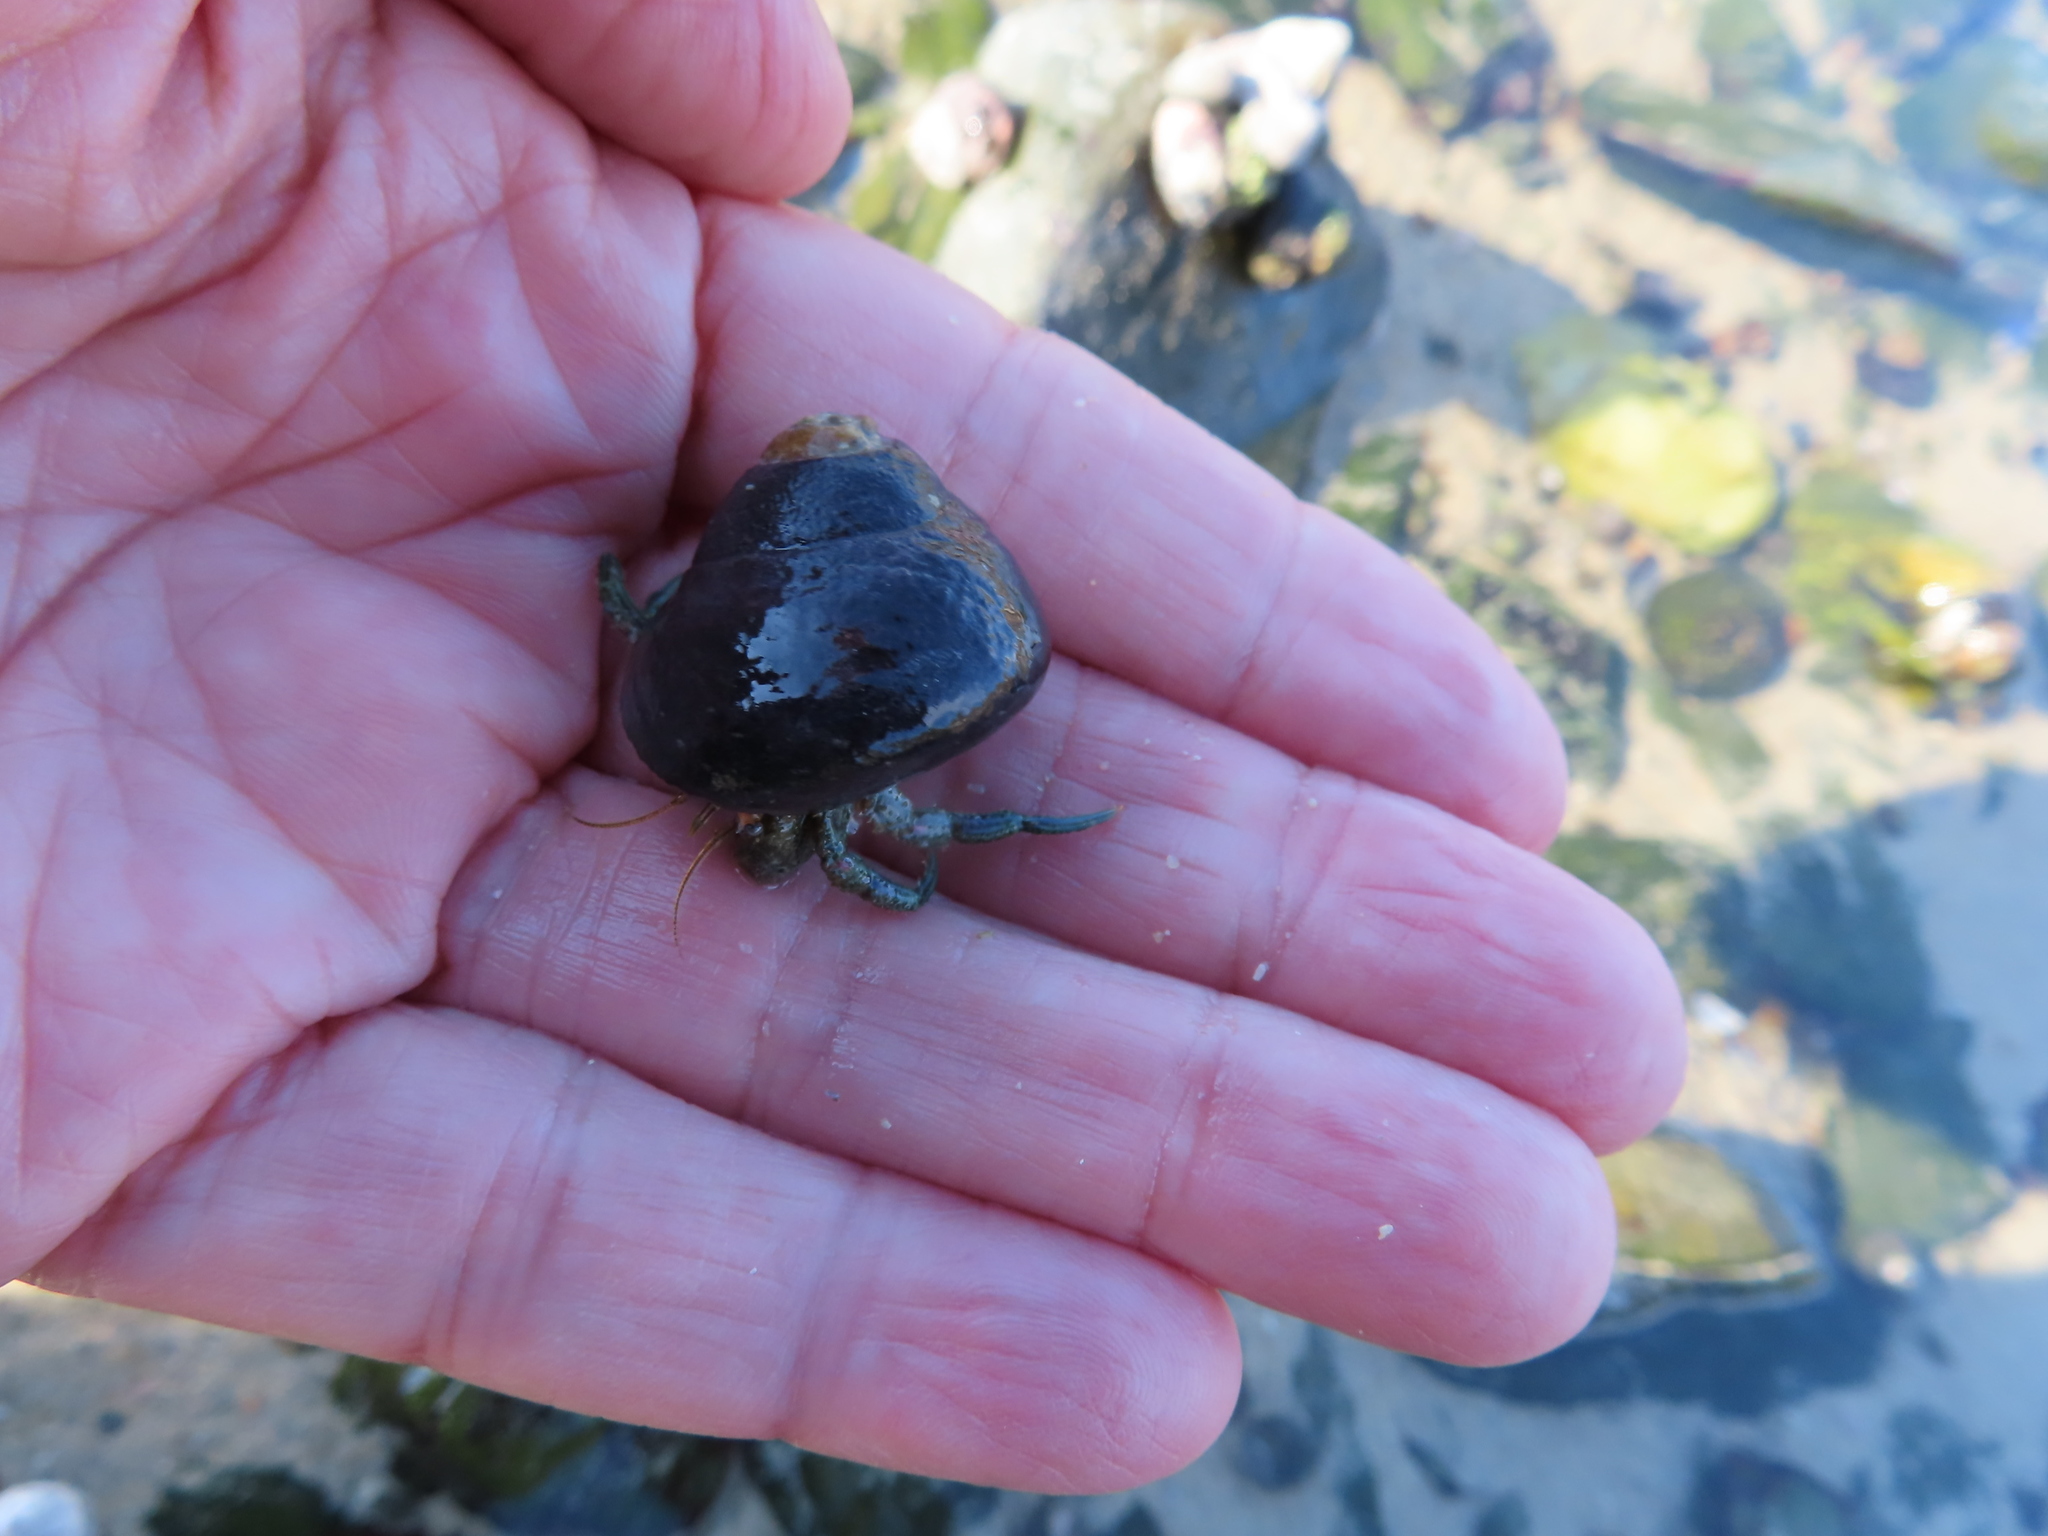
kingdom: Animalia
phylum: Arthropoda
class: Malacostraca
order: Decapoda
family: Diogenidae
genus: Diogenes
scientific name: Diogenes brevirostris
